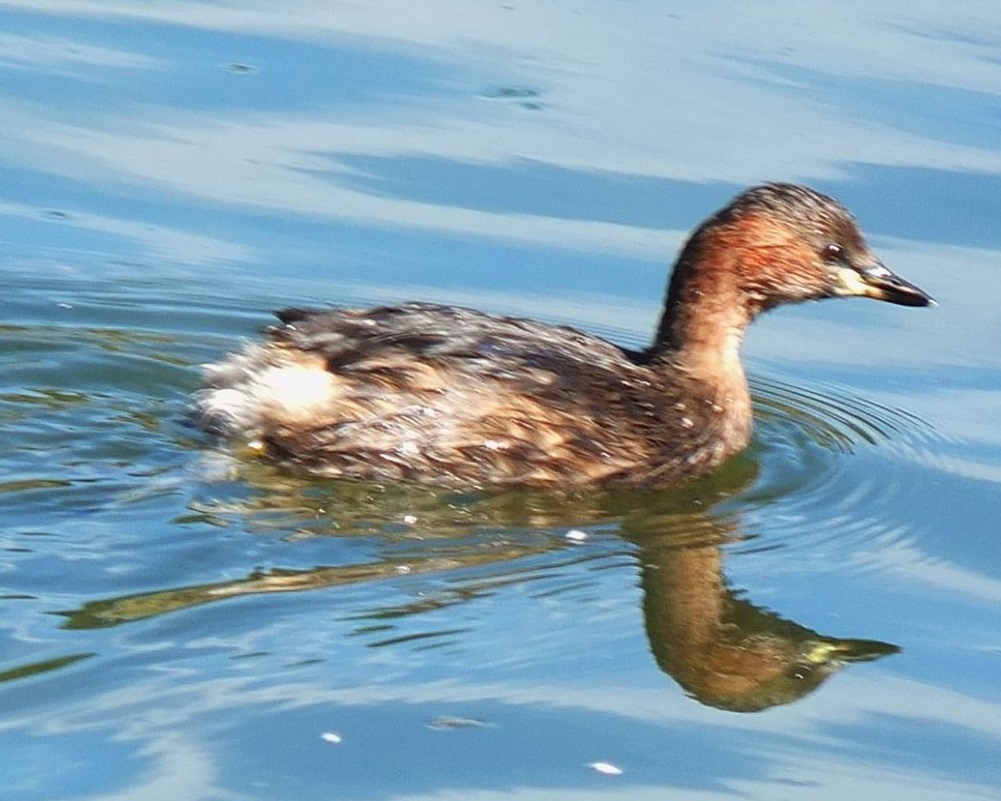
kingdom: Animalia
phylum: Chordata
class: Aves
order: Podicipediformes
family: Podicipedidae
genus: Tachybaptus
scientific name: Tachybaptus ruficollis
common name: Little grebe
